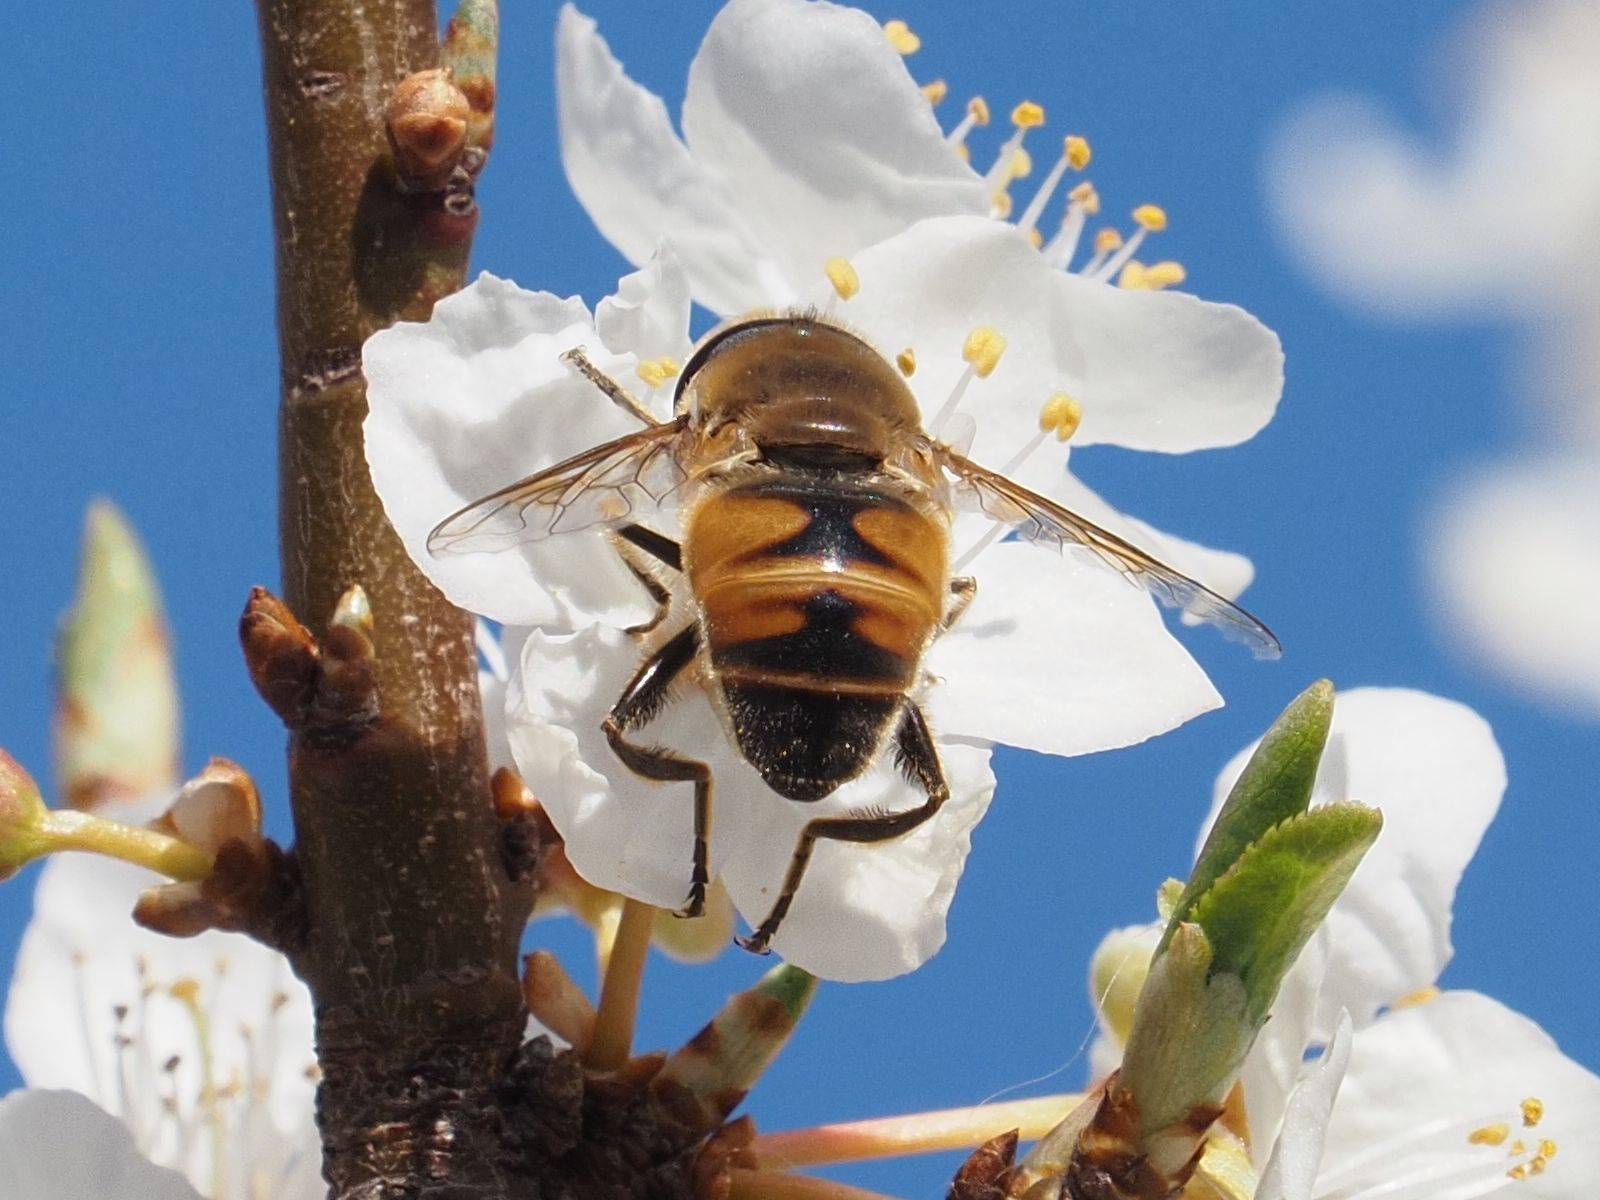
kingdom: Animalia
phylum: Arthropoda
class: Insecta
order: Diptera
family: Syrphidae
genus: Eristalis
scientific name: Eristalis tenax
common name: Drone fly
